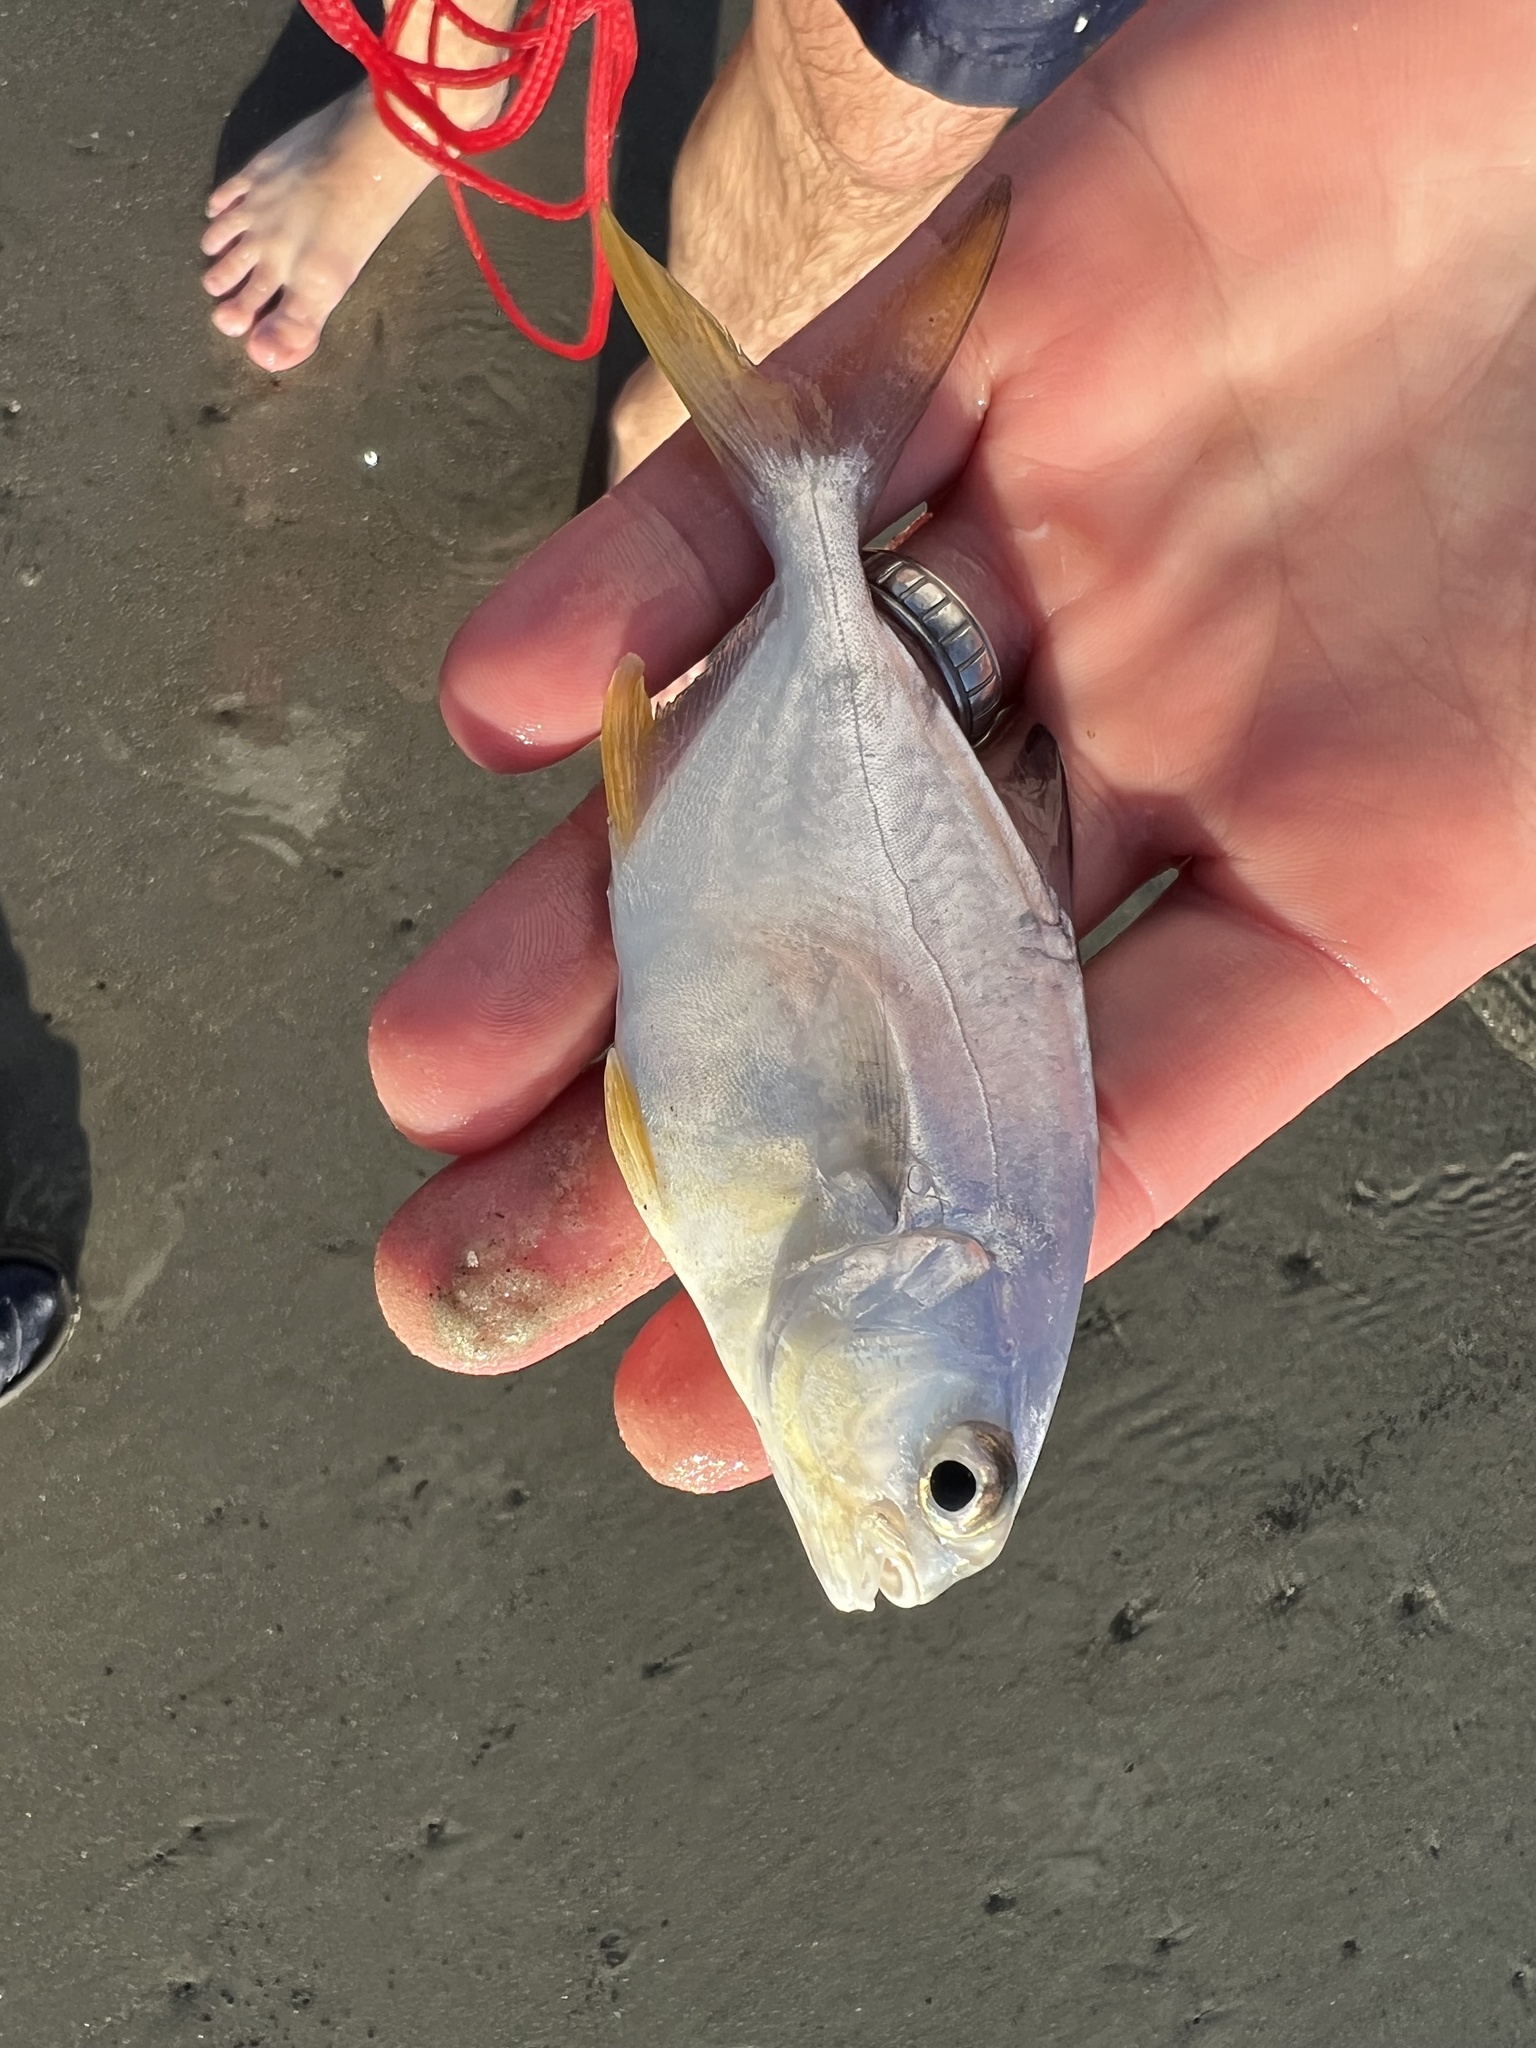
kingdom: Animalia
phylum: Chordata
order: Perciformes
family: Carangidae
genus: Trachinotus
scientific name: Trachinotus carolinus
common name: Florida pompano
